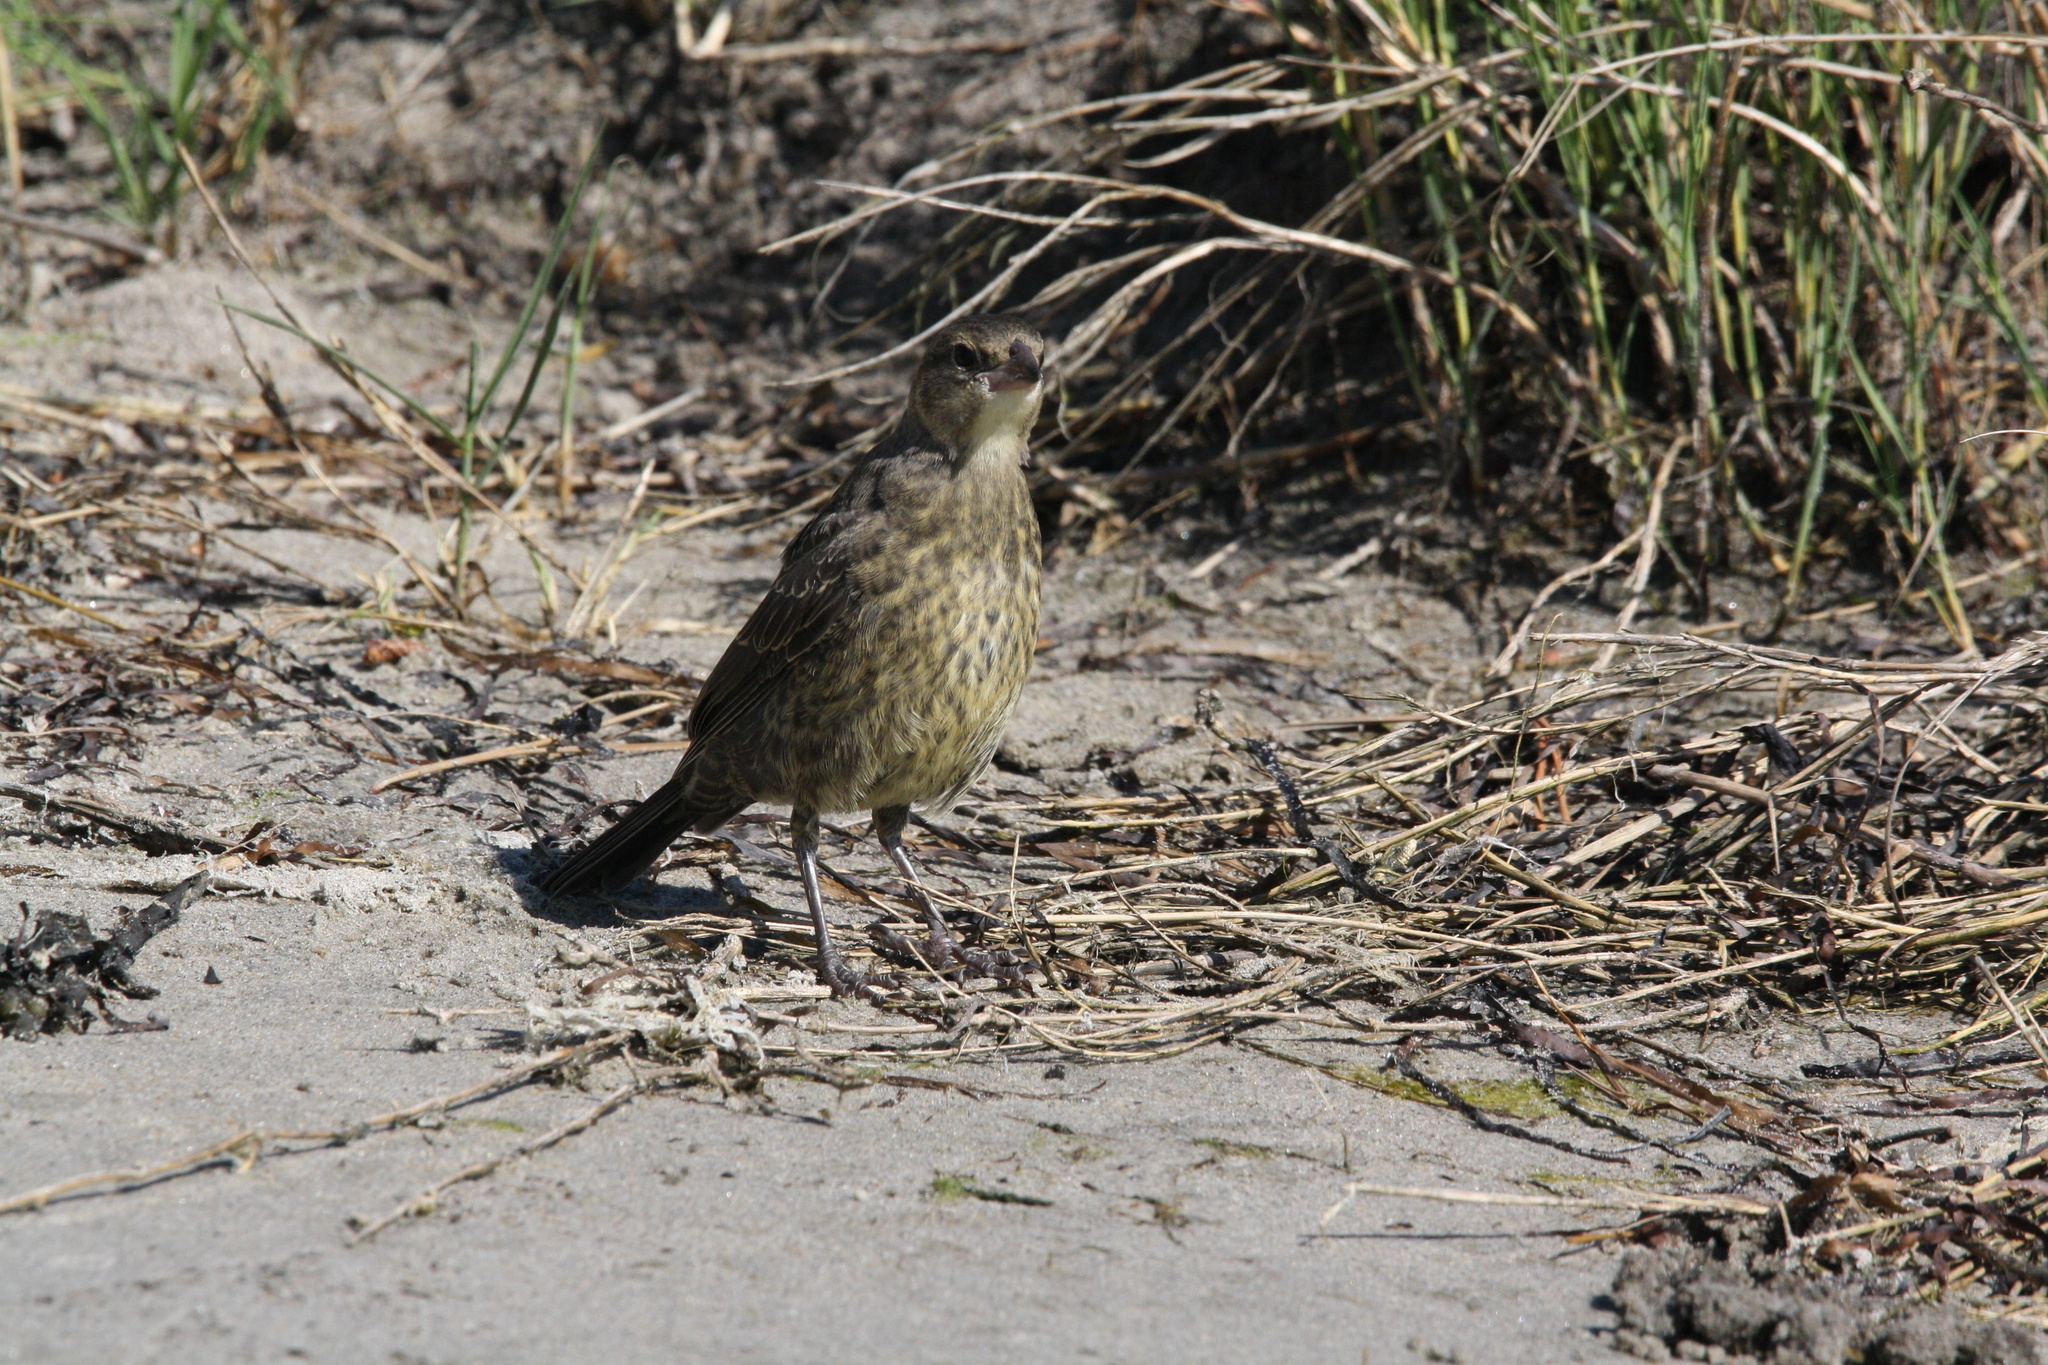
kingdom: Animalia
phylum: Chordata
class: Aves
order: Passeriformes
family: Icteridae
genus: Molothrus
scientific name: Molothrus ater
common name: Brown-headed cowbird
